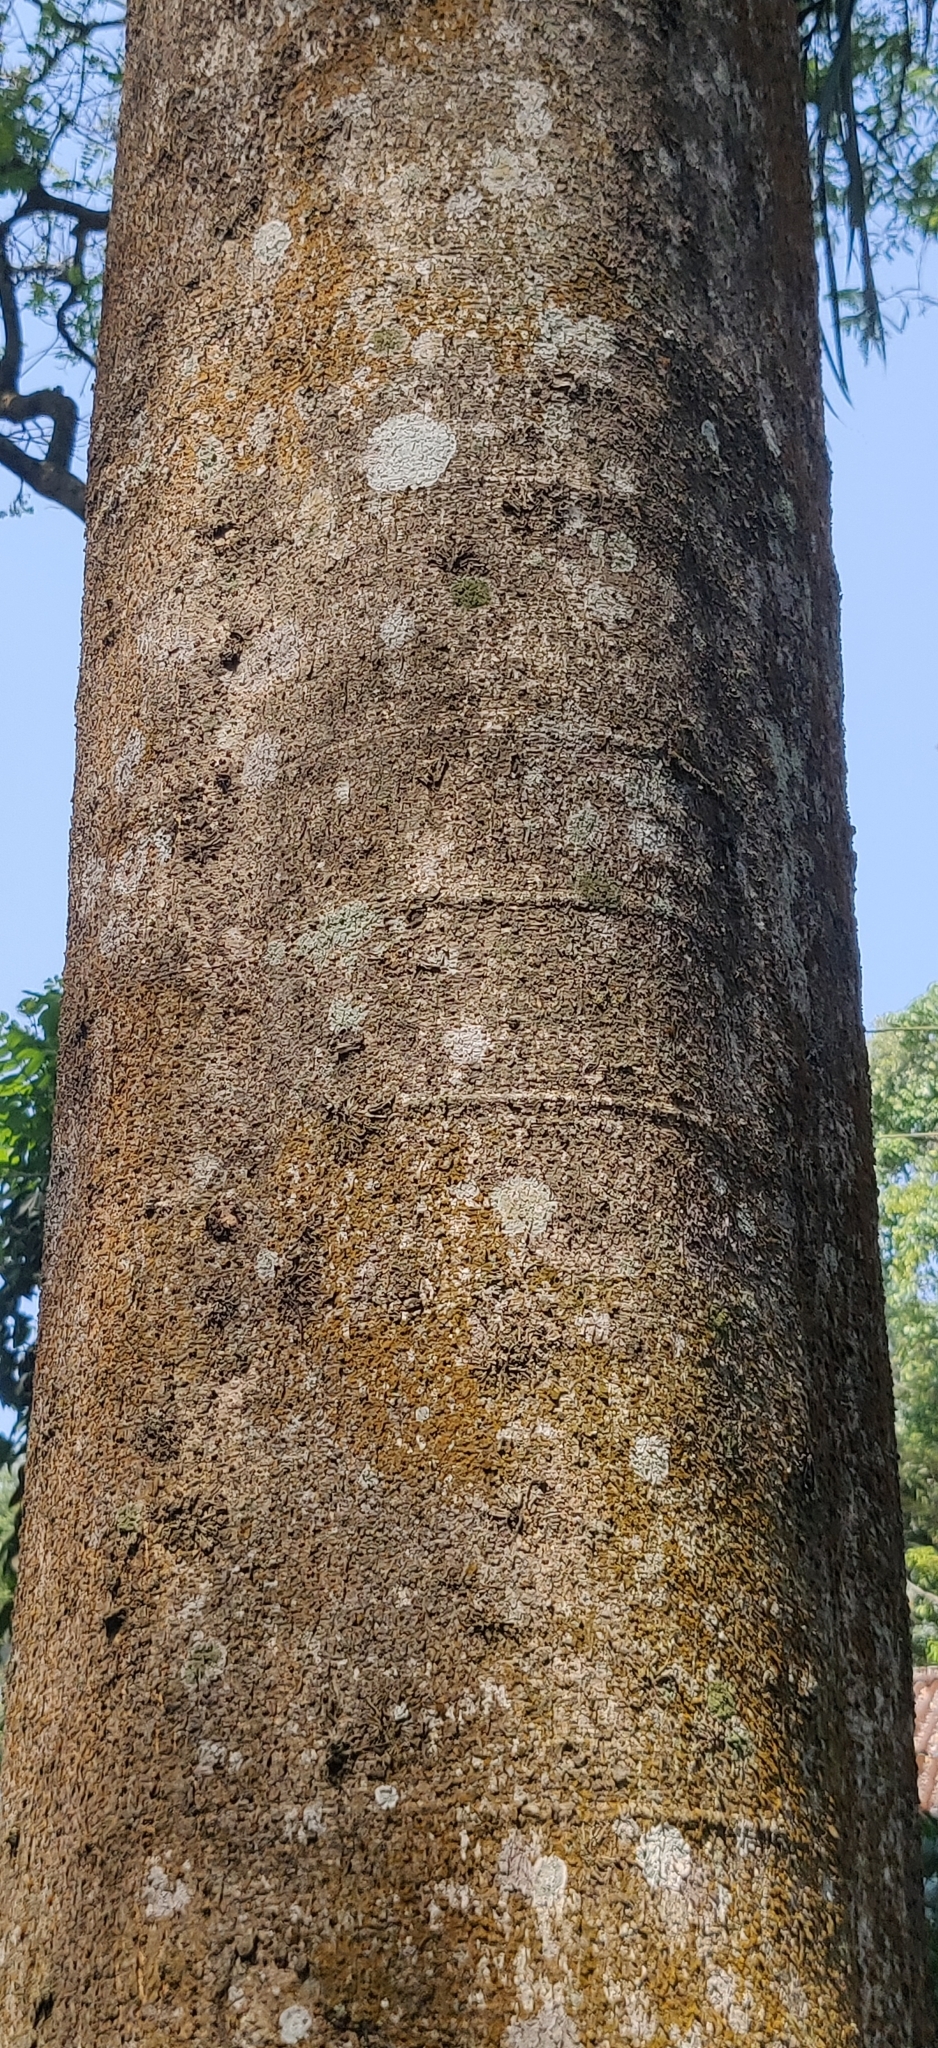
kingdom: Plantae
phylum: Tracheophyta
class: Magnoliopsida
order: Fabales
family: Fabaceae
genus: Acrocarpus
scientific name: Acrocarpus fraxinifolius
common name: Kenya coffeeshade
